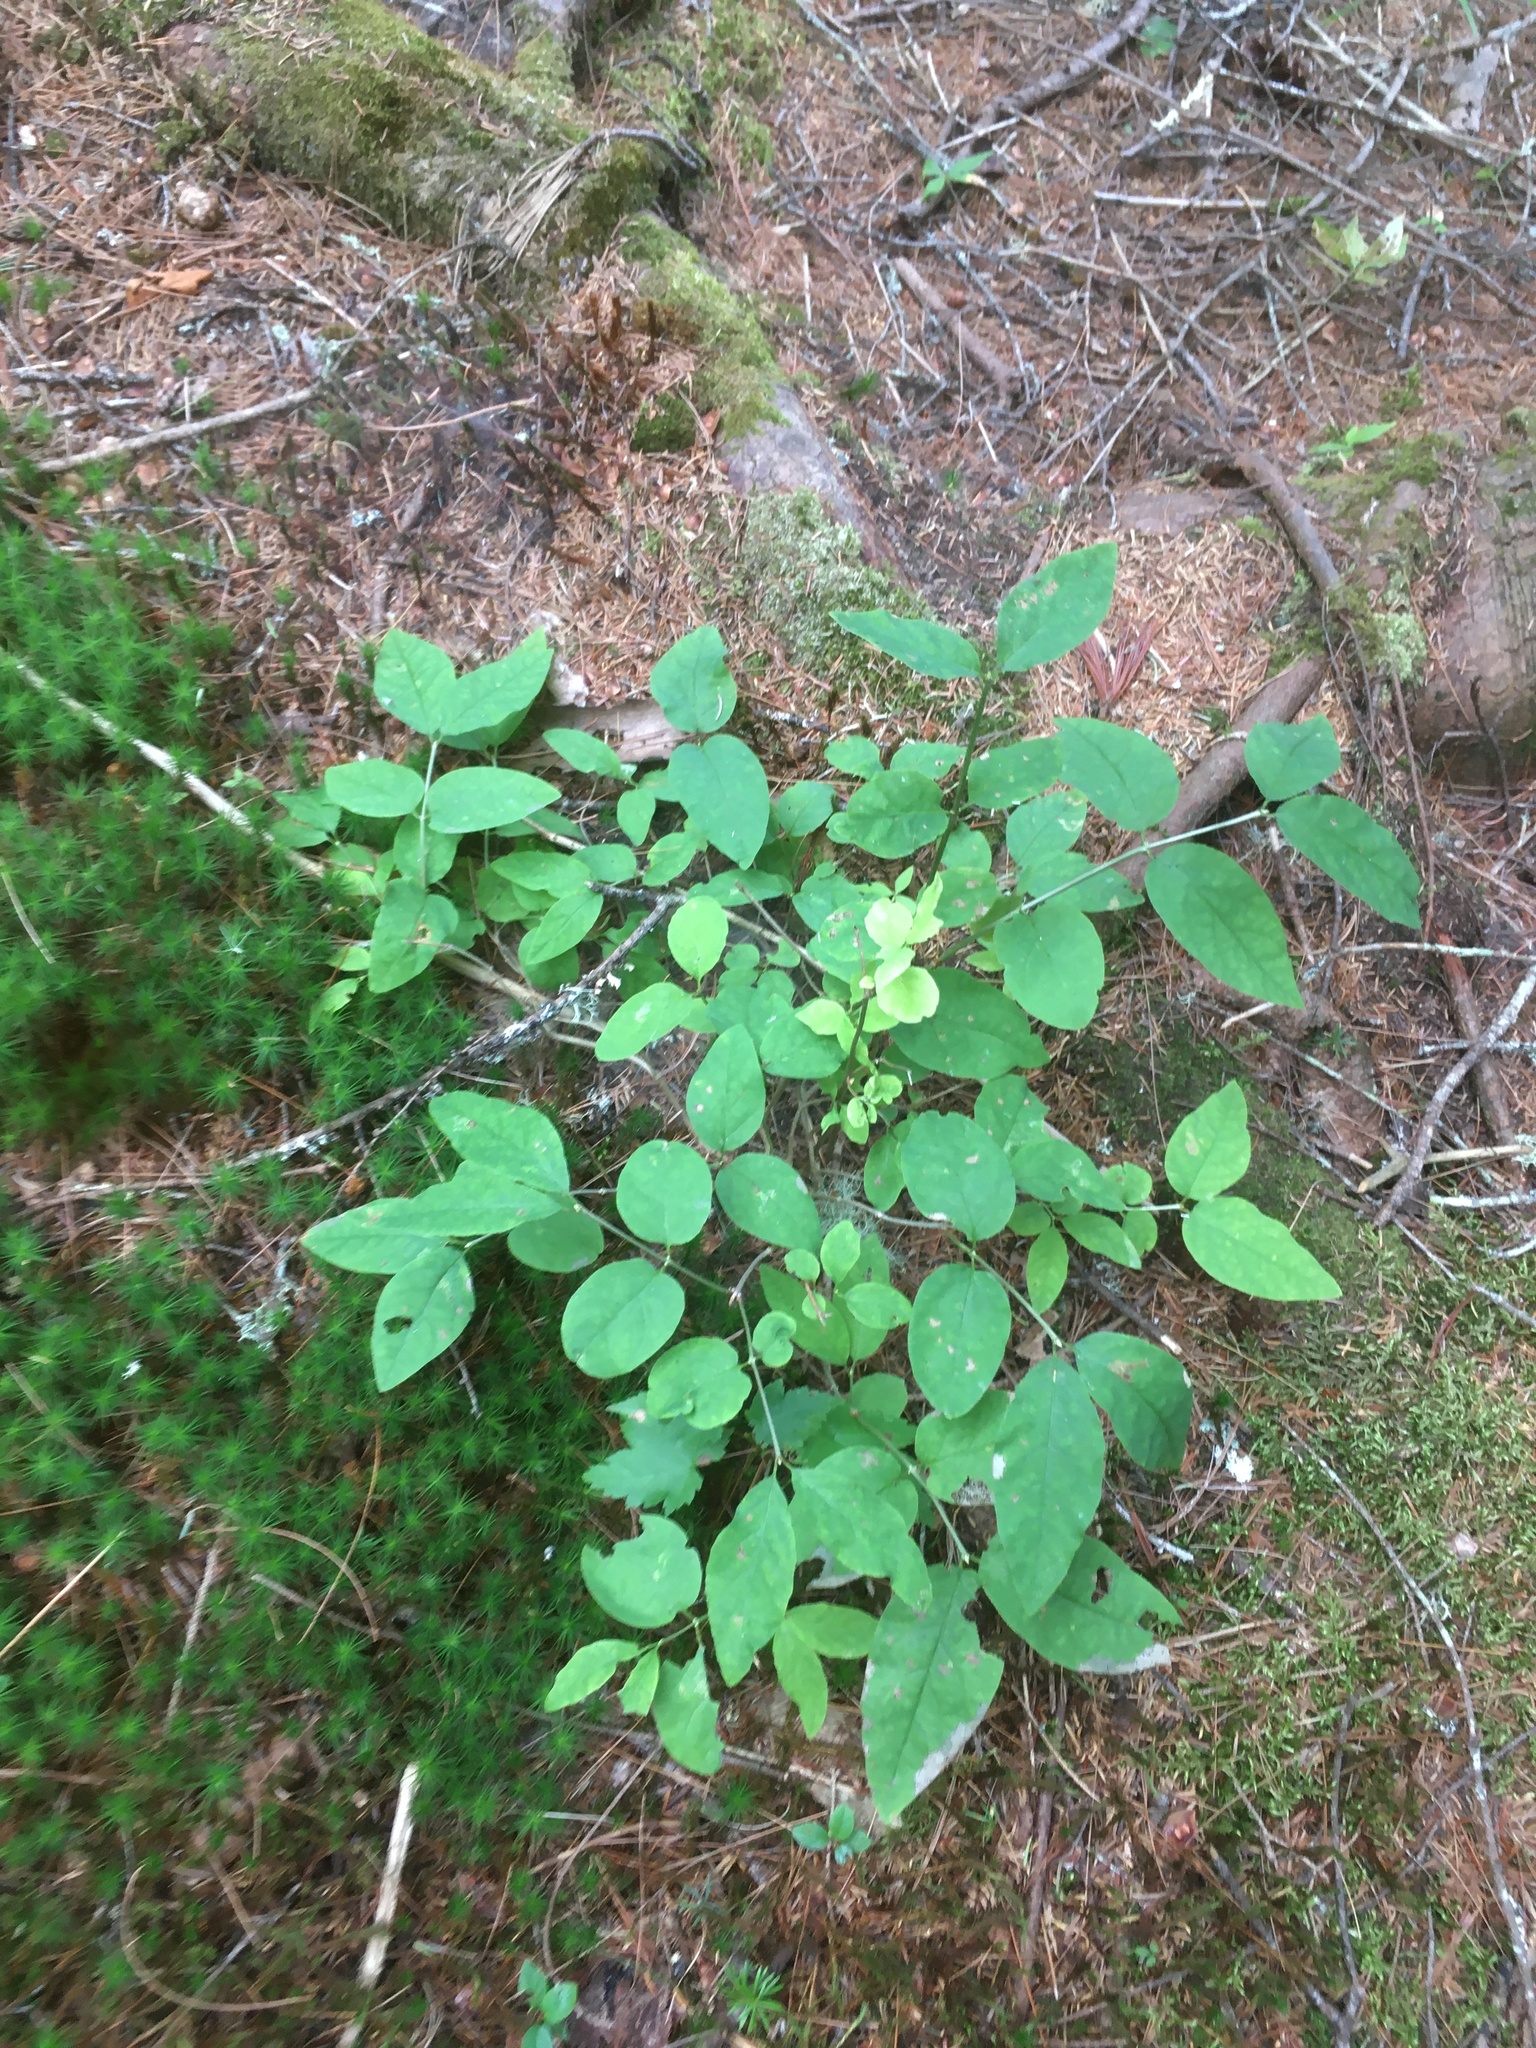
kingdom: Plantae
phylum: Tracheophyta
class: Magnoliopsida
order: Dipsacales
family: Caprifoliaceae
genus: Lonicera
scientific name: Lonicera canadensis
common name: American fly-honeysuckle
